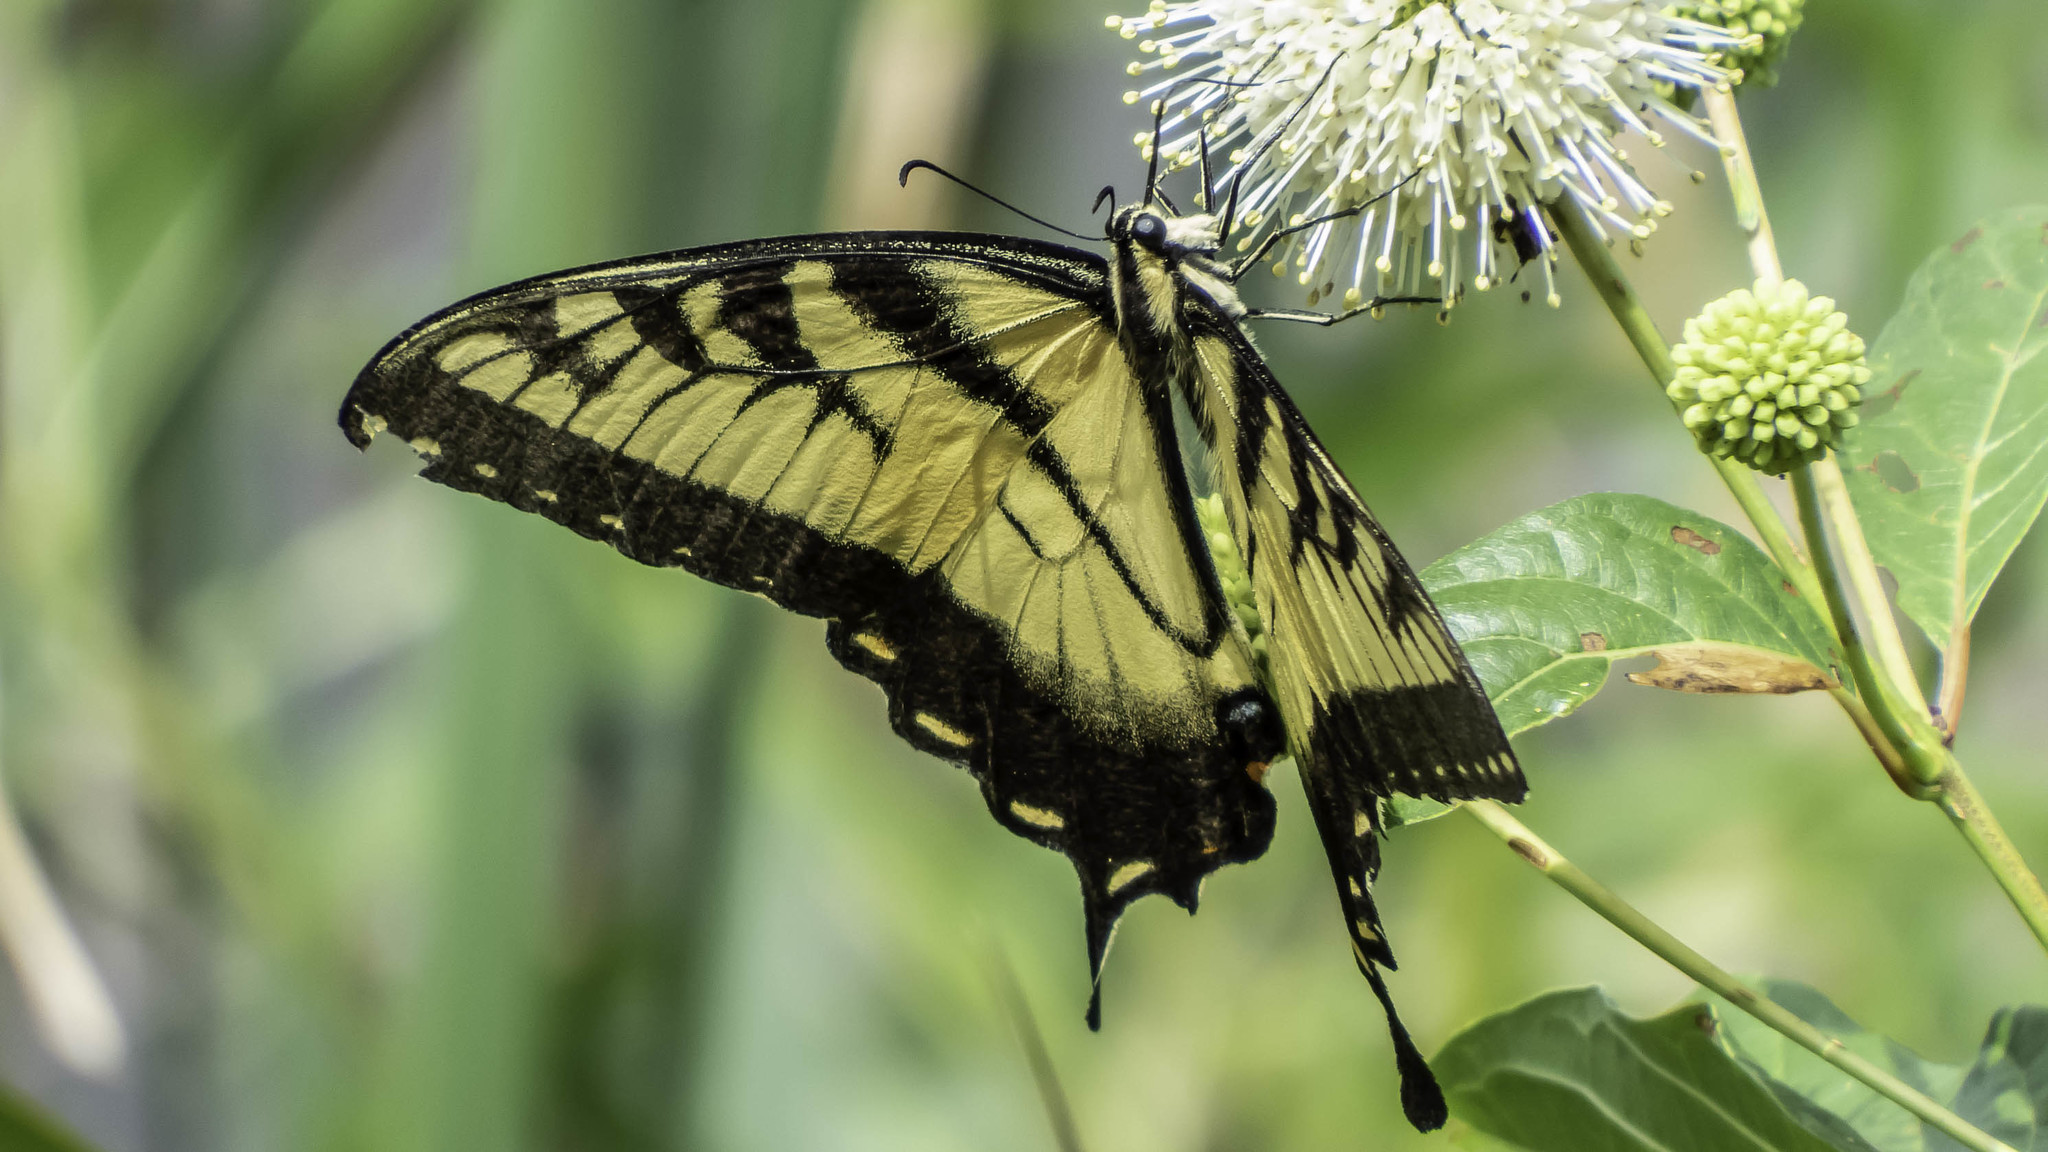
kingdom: Animalia
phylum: Arthropoda
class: Insecta
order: Lepidoptera
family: Papilionidae
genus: Papilio
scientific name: Papilio glaucus
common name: Tiger swallowtail
